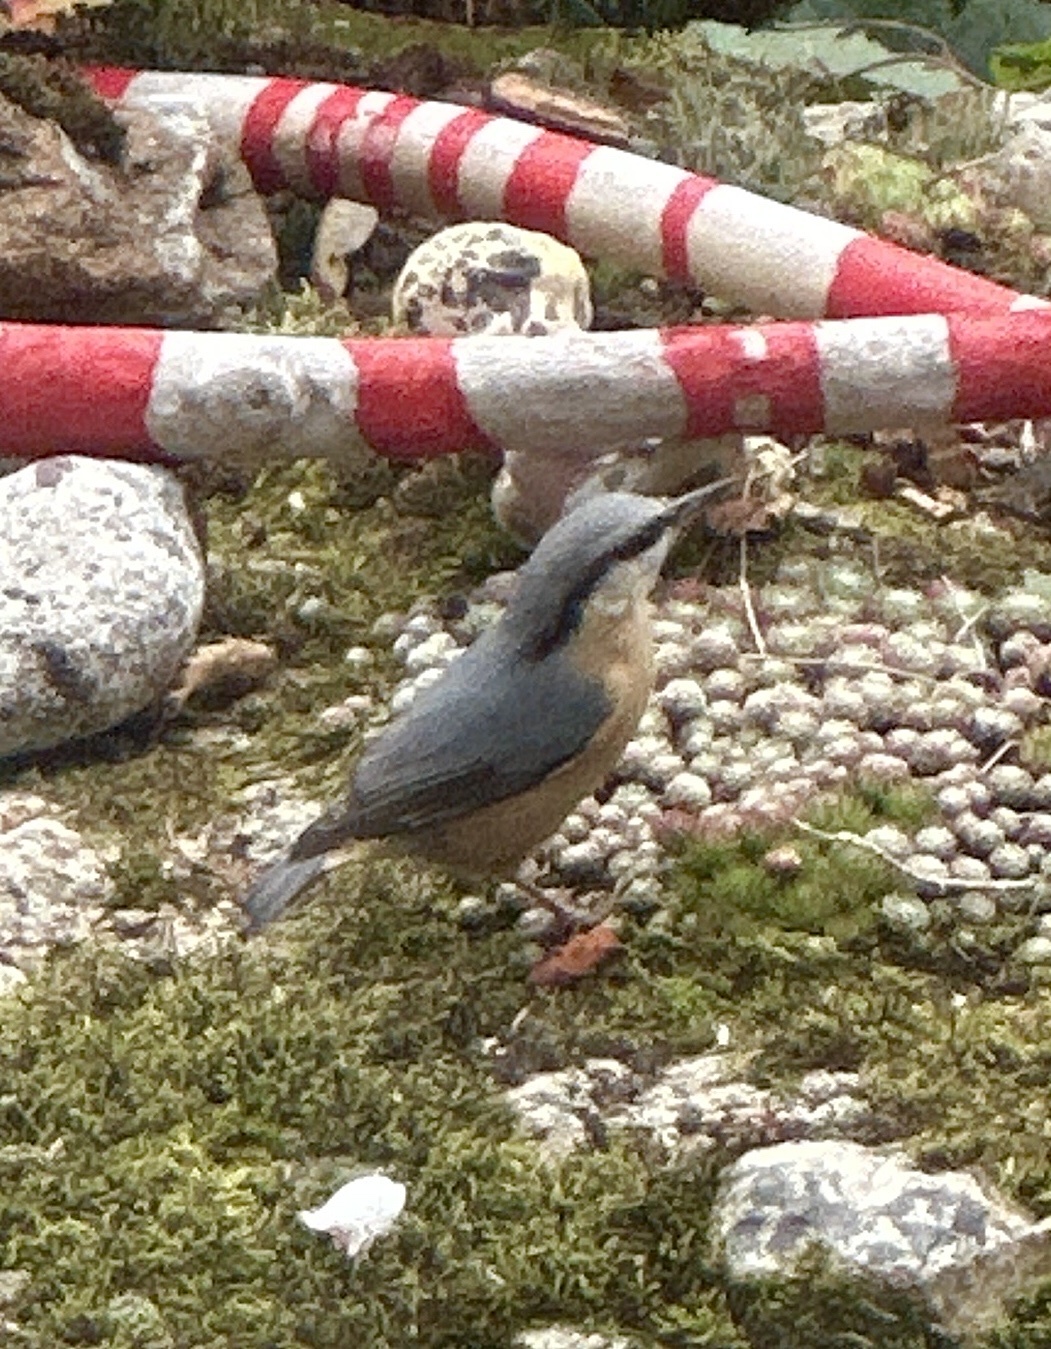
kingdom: Animalia
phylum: Chordata
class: Aves
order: Passeriformes
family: Sittidae
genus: Sitta
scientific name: Sitta europaea
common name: Eurasian nuthatch
